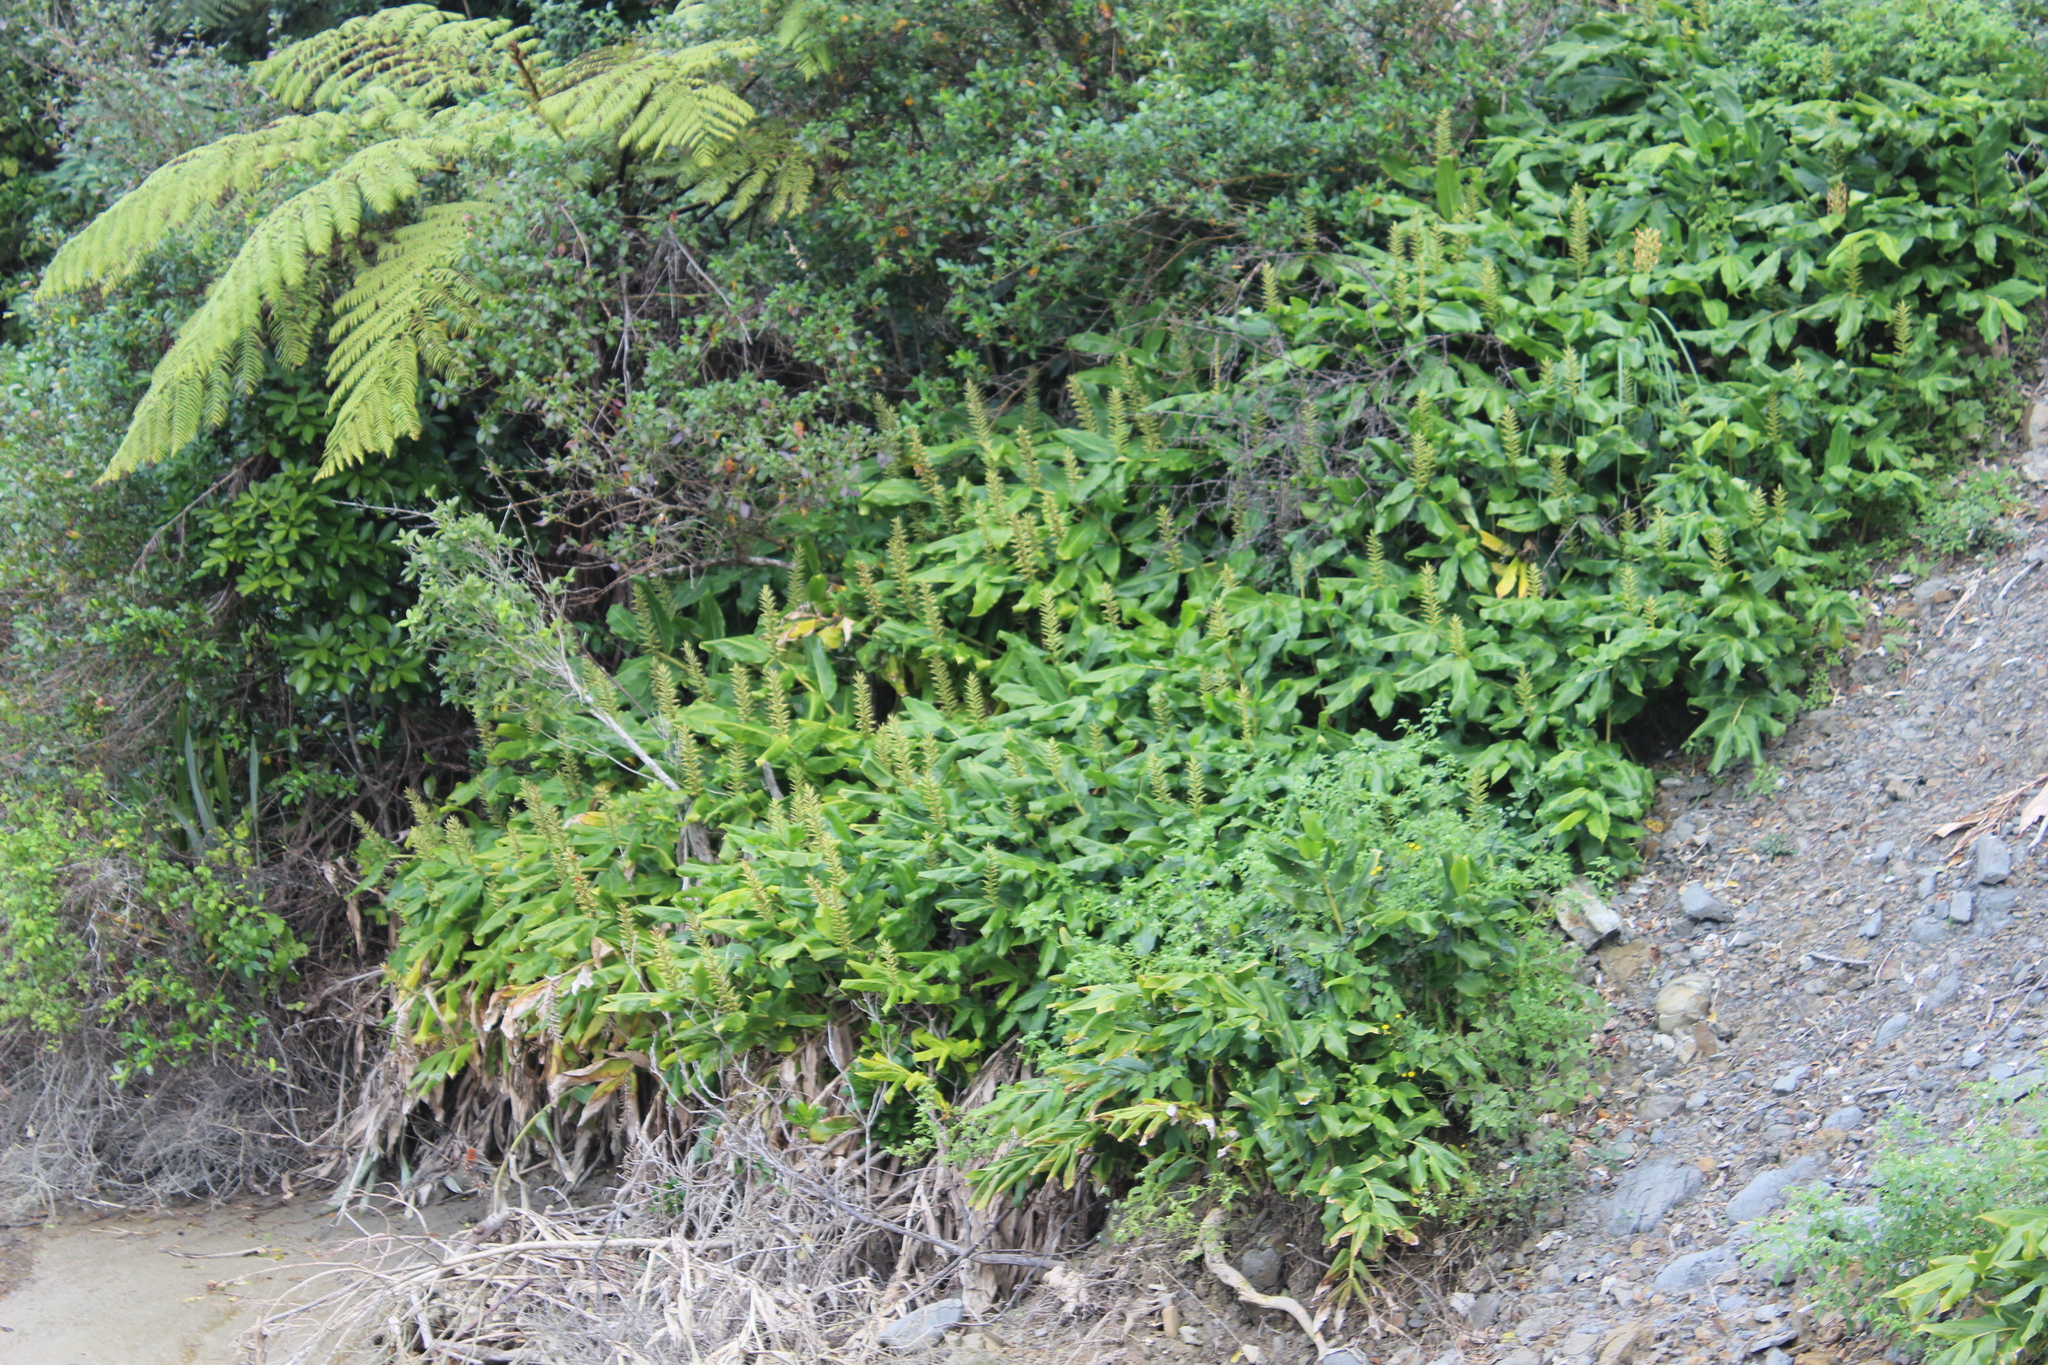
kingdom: Plantae
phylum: Tracheophyta
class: Liliopsida
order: Zingiberales
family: Zingiberaceae
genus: Hedychium
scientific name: Hedychium gardnerianum
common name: Himalayan ginger
